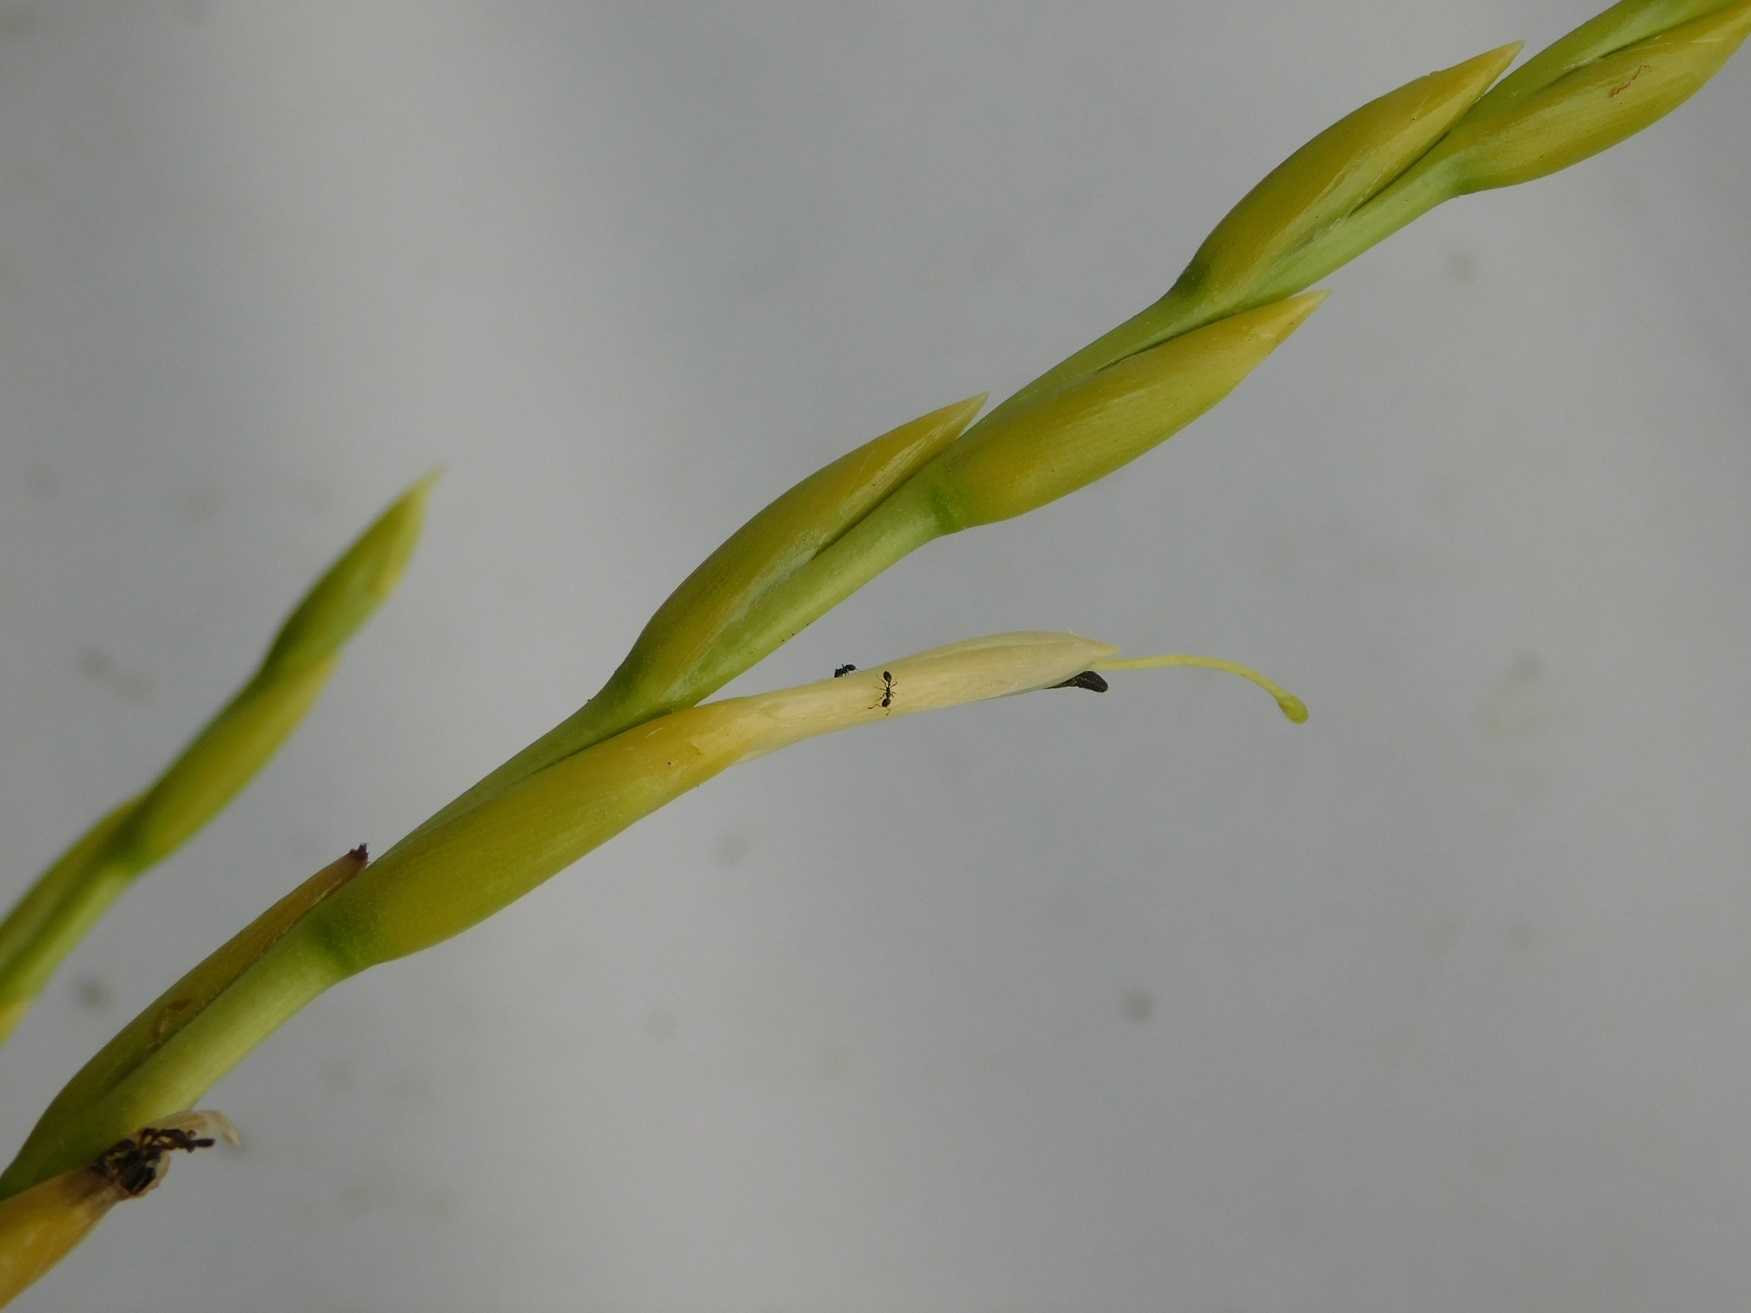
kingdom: Plantae
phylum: Tracheophyta
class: Liliopsida
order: Poales
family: Bromeliaceae
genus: Tillandsia
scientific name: Tillandsia elusiva
